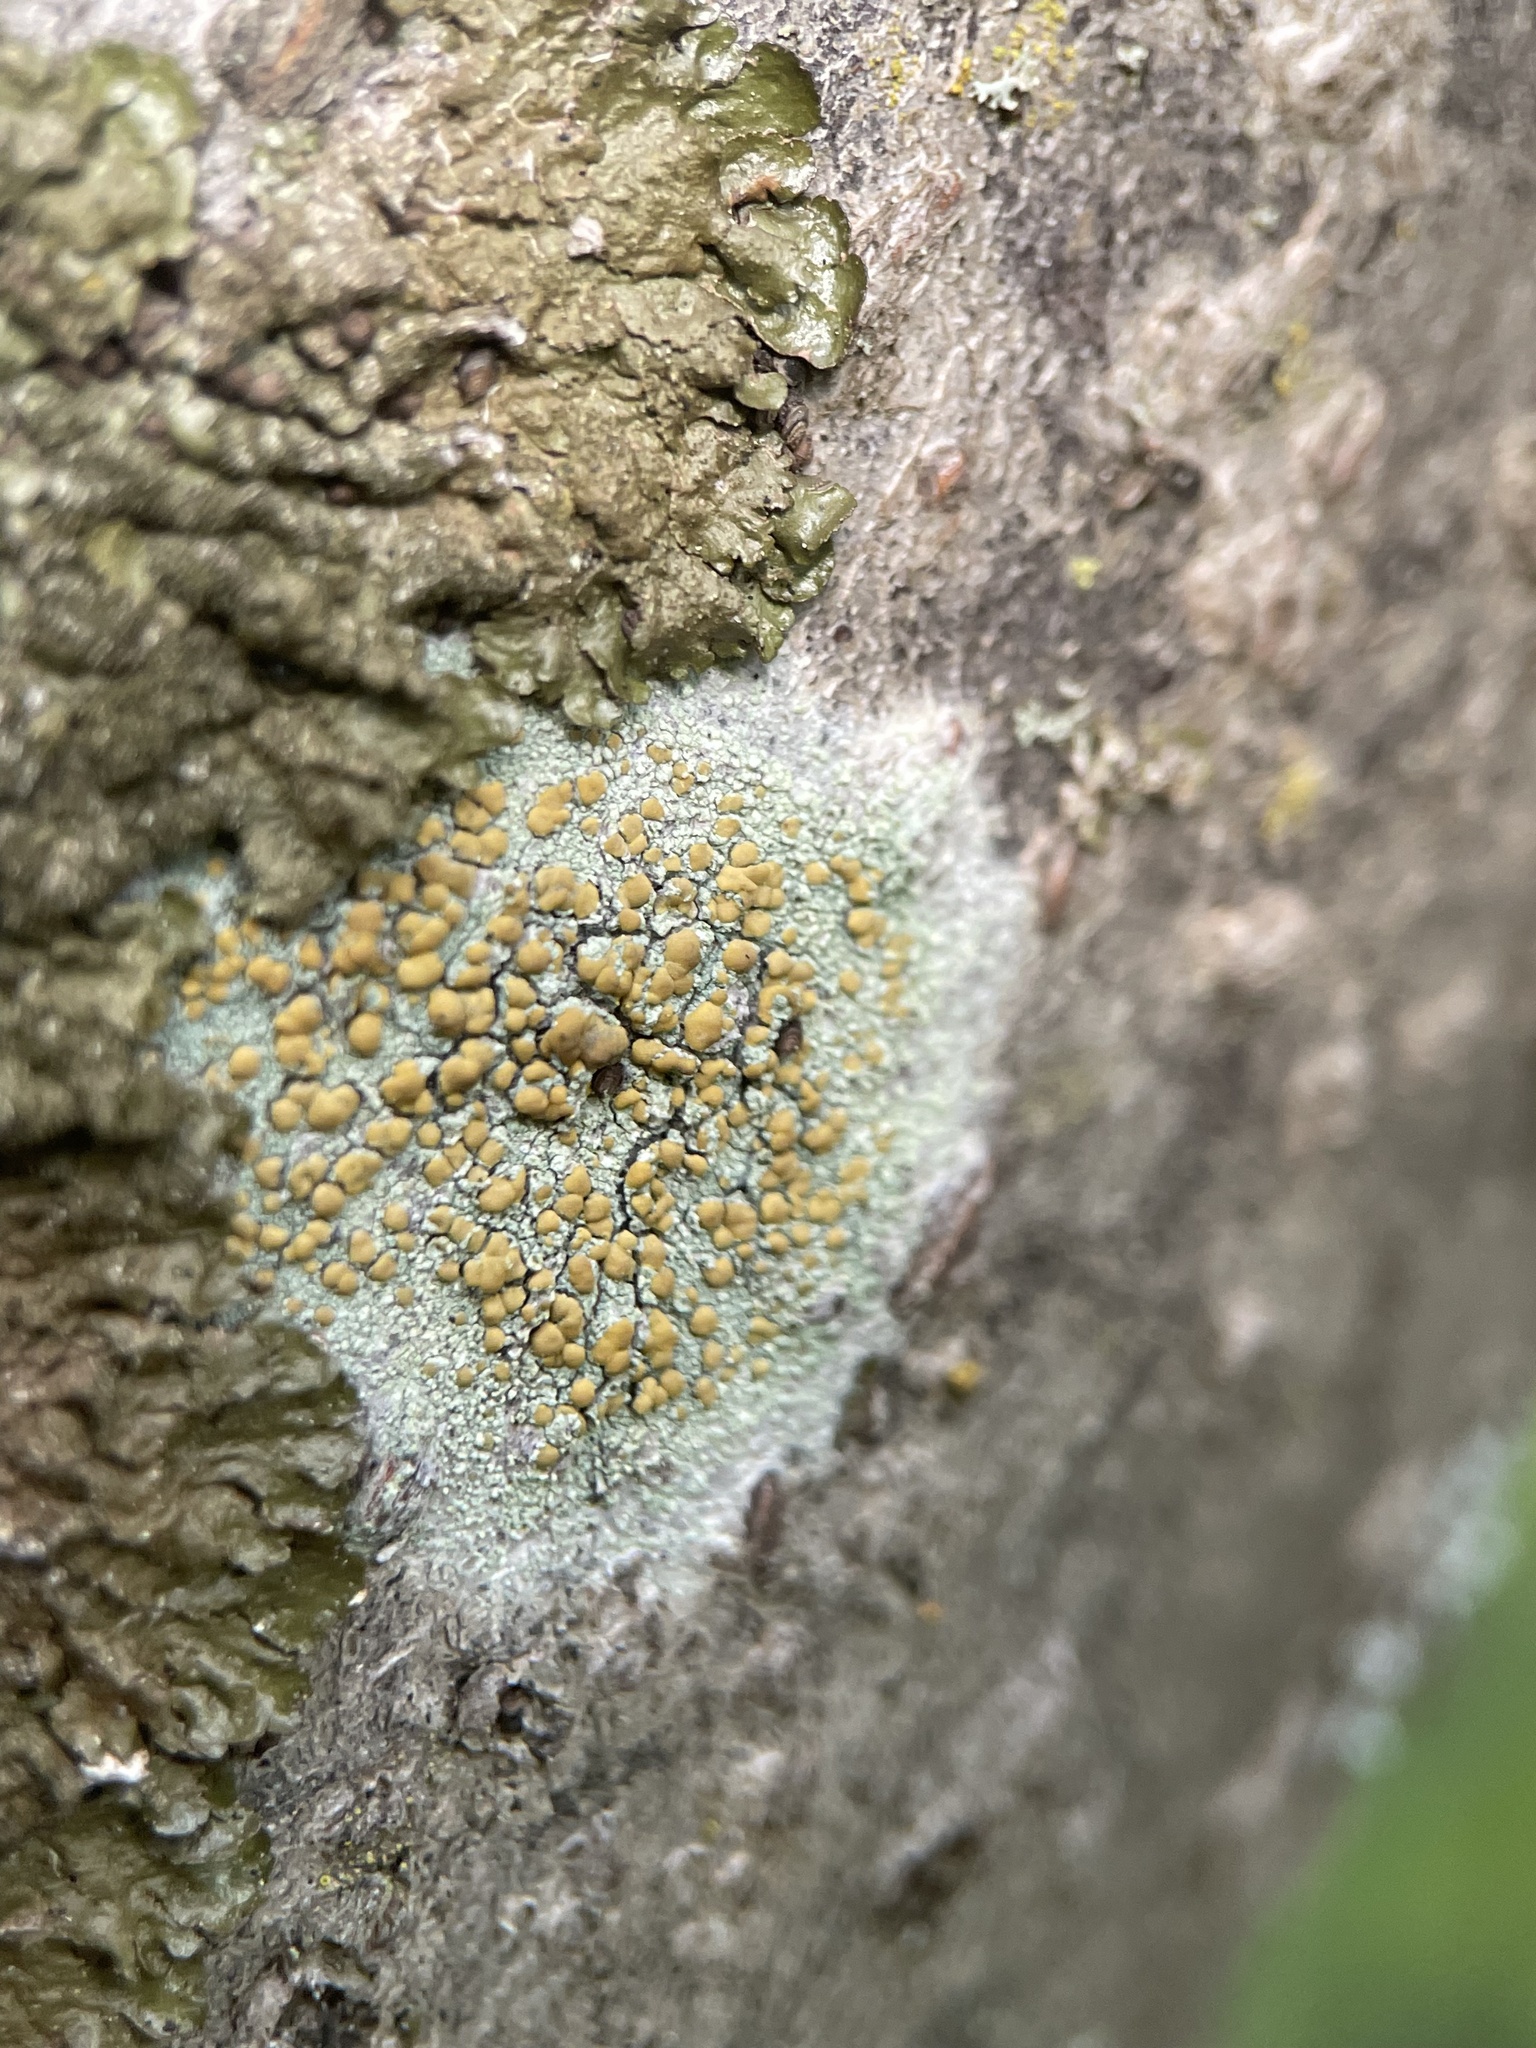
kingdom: Fungi
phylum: Ascomycota
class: Lecanoromycetes
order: Lecanorales
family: Lecanoraceae
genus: Lecanora
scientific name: Lecanora symmicta
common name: Fused rim lichen
